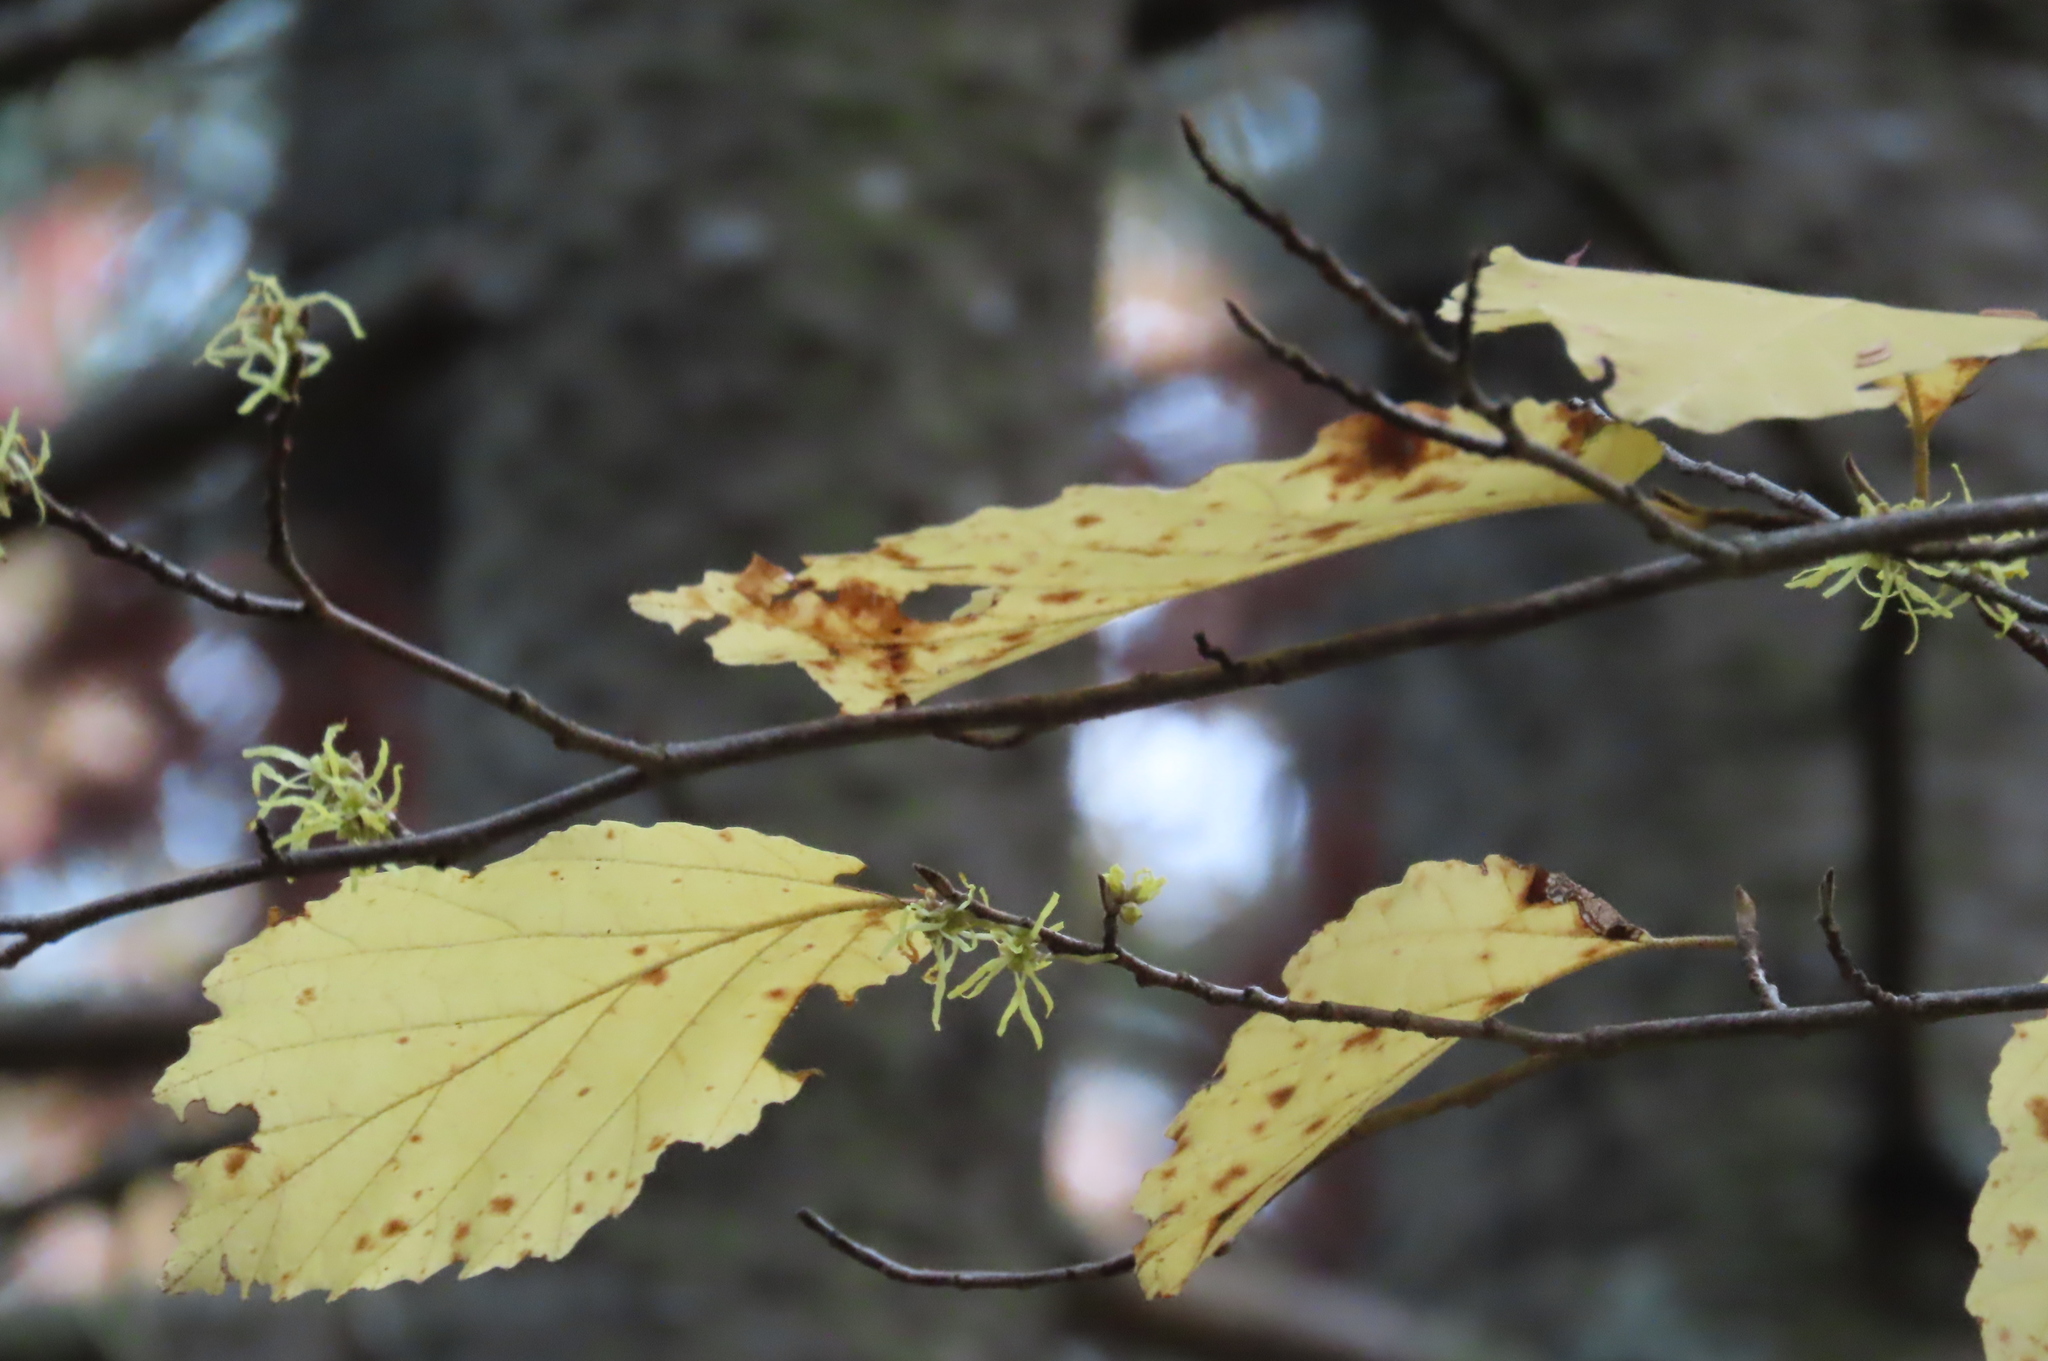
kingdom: Plantae
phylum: Tracheophyta
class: Magnoliopsida
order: Saxifragales
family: Hamamelidaceae
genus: Hamamelis
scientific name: Hamamelis virginiana
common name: Witch-hazel
